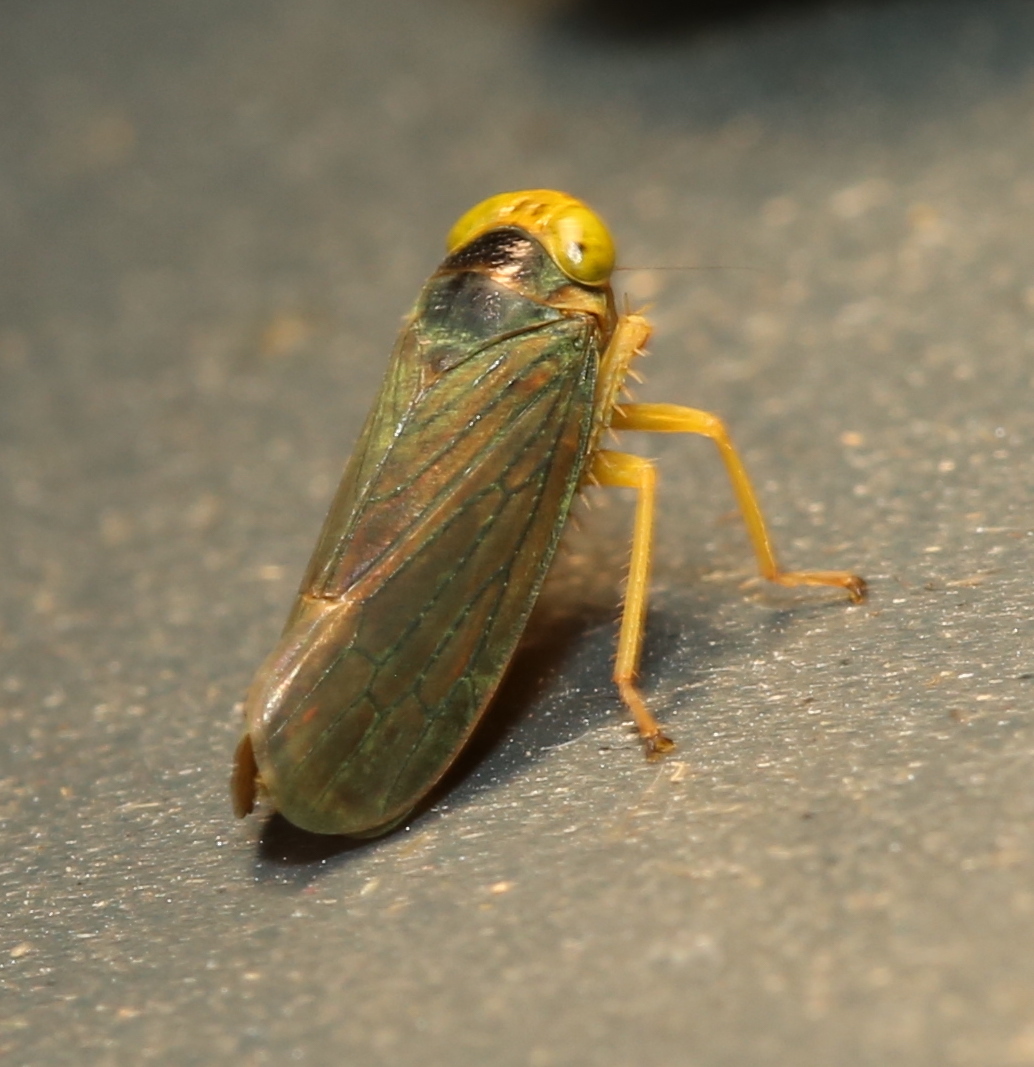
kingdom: Animalia
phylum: Arthropoda
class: Insecta
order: Hemiptera
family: Cicadellidae
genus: Jikradia
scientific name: Jikradia olitoria
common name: Coppery leafhopper
